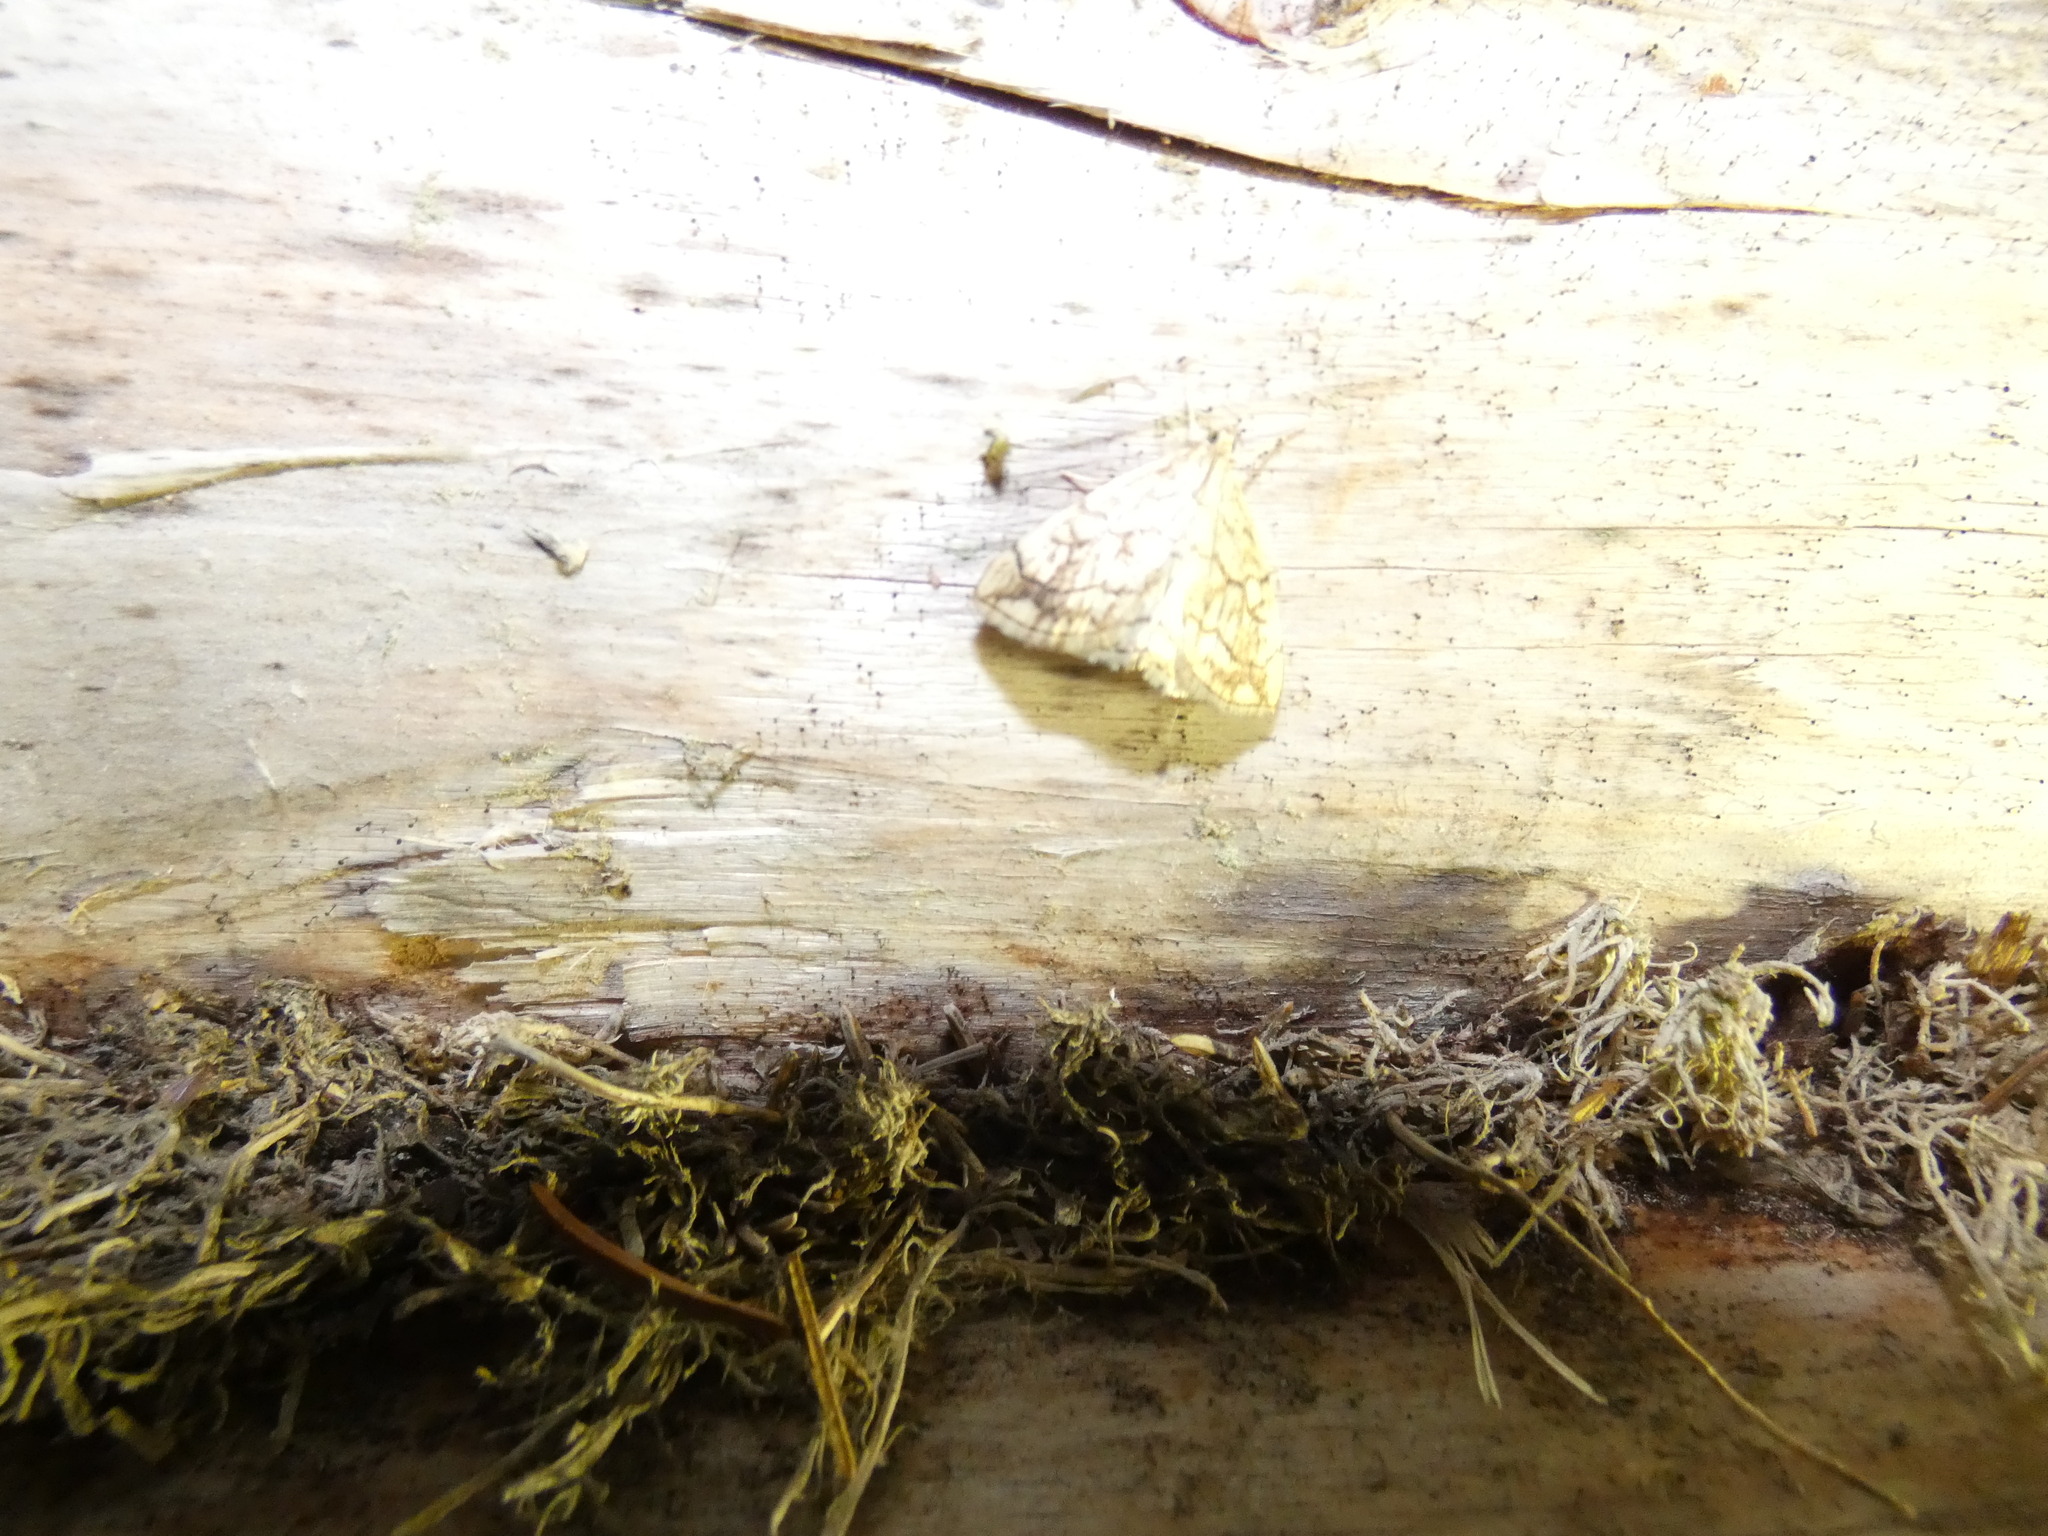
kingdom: Animalia
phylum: Arthropoda
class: Insecta
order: Lepidoptera
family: Crambidae
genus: Evergestis
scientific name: Evergestis pallidata
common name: Chequered pearl
